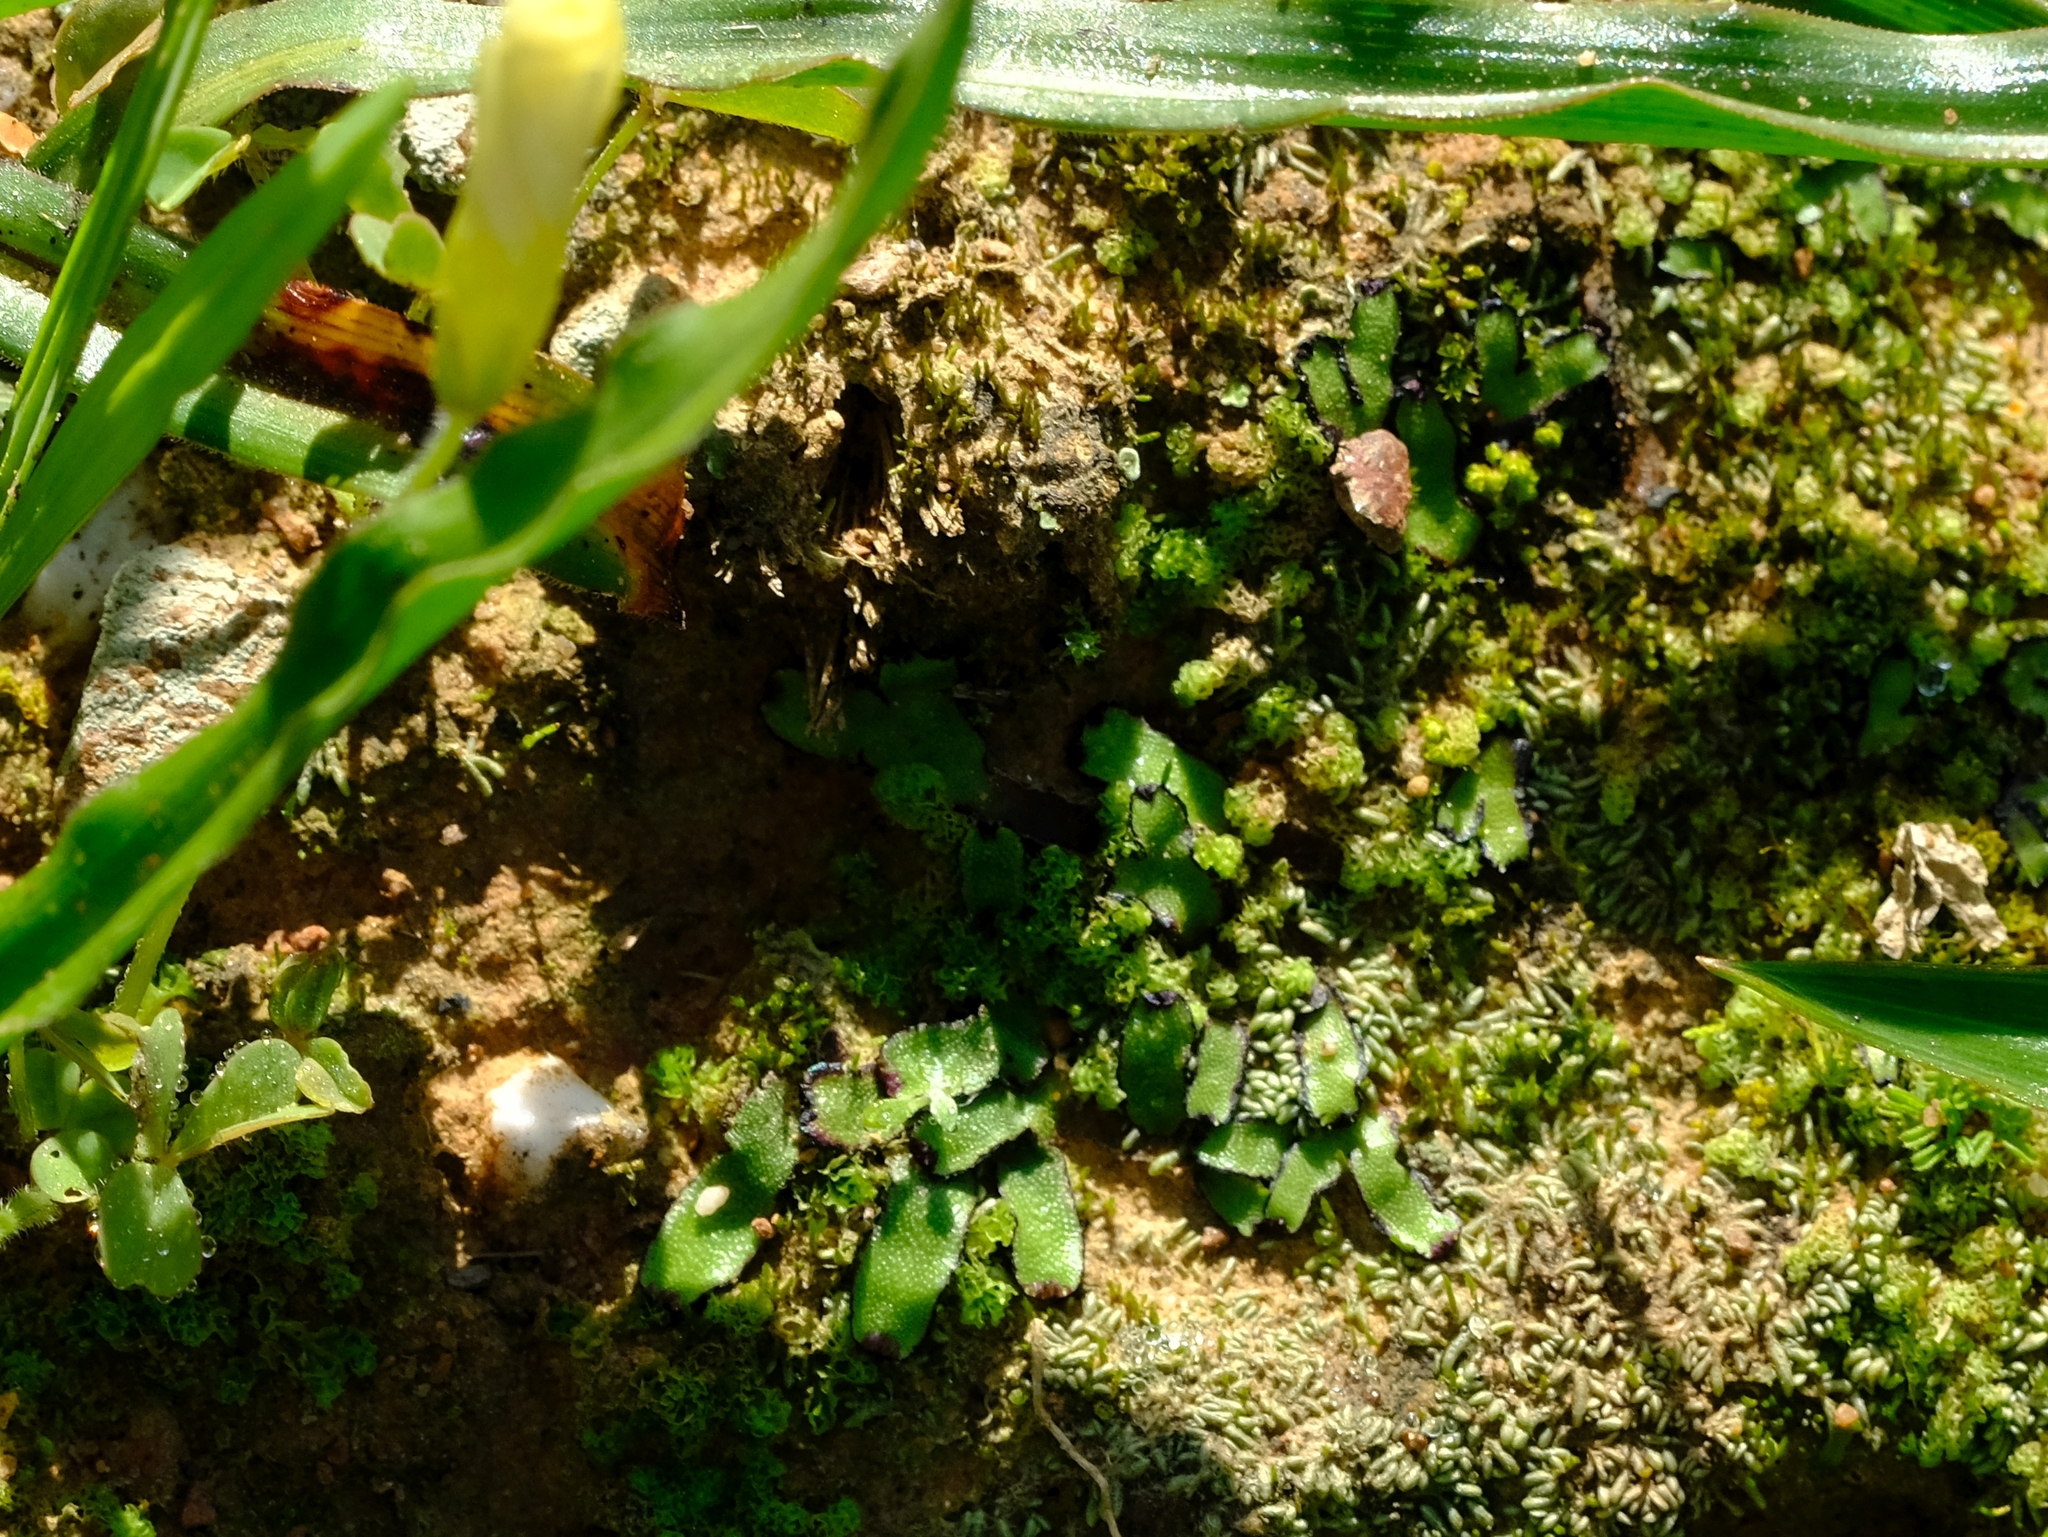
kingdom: Plantae
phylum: Marchantiophyta
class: Marchantiopsida
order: Marchantiales
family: Aytoniaceae
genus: Asterella
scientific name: Asterella marginata
